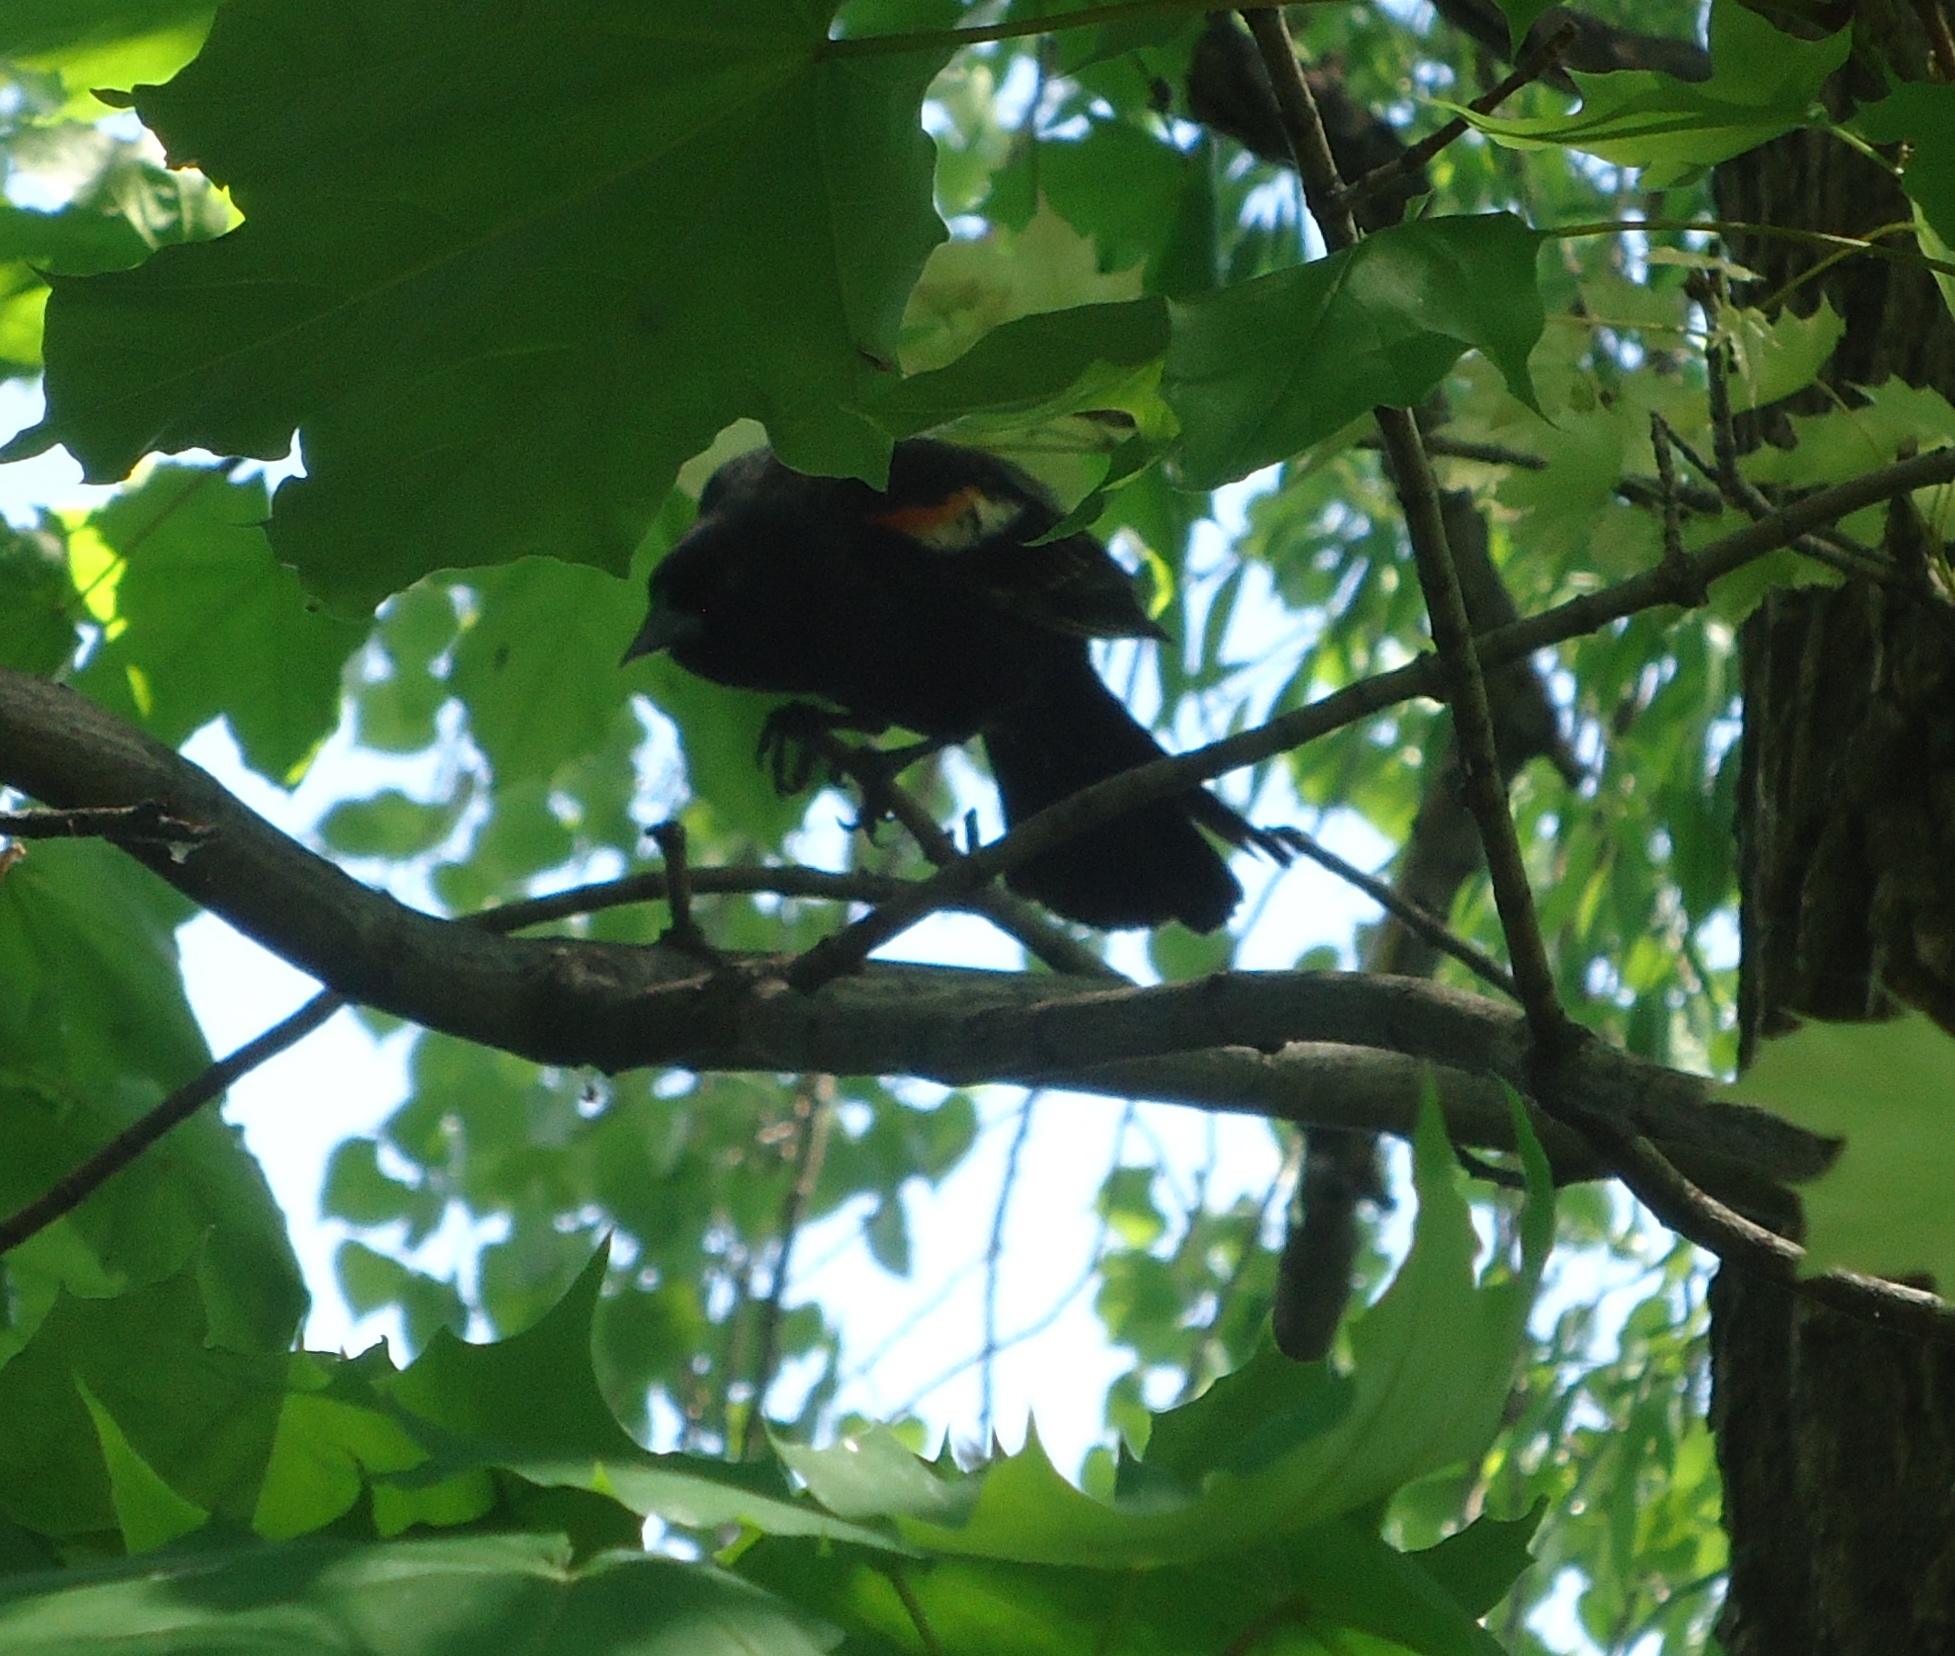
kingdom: Animalia
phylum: Chordata
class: Aves
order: Passeriformes
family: Icteridae
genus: Agelaius
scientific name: Agelaius phoeniceus
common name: Red-winged blackbird
